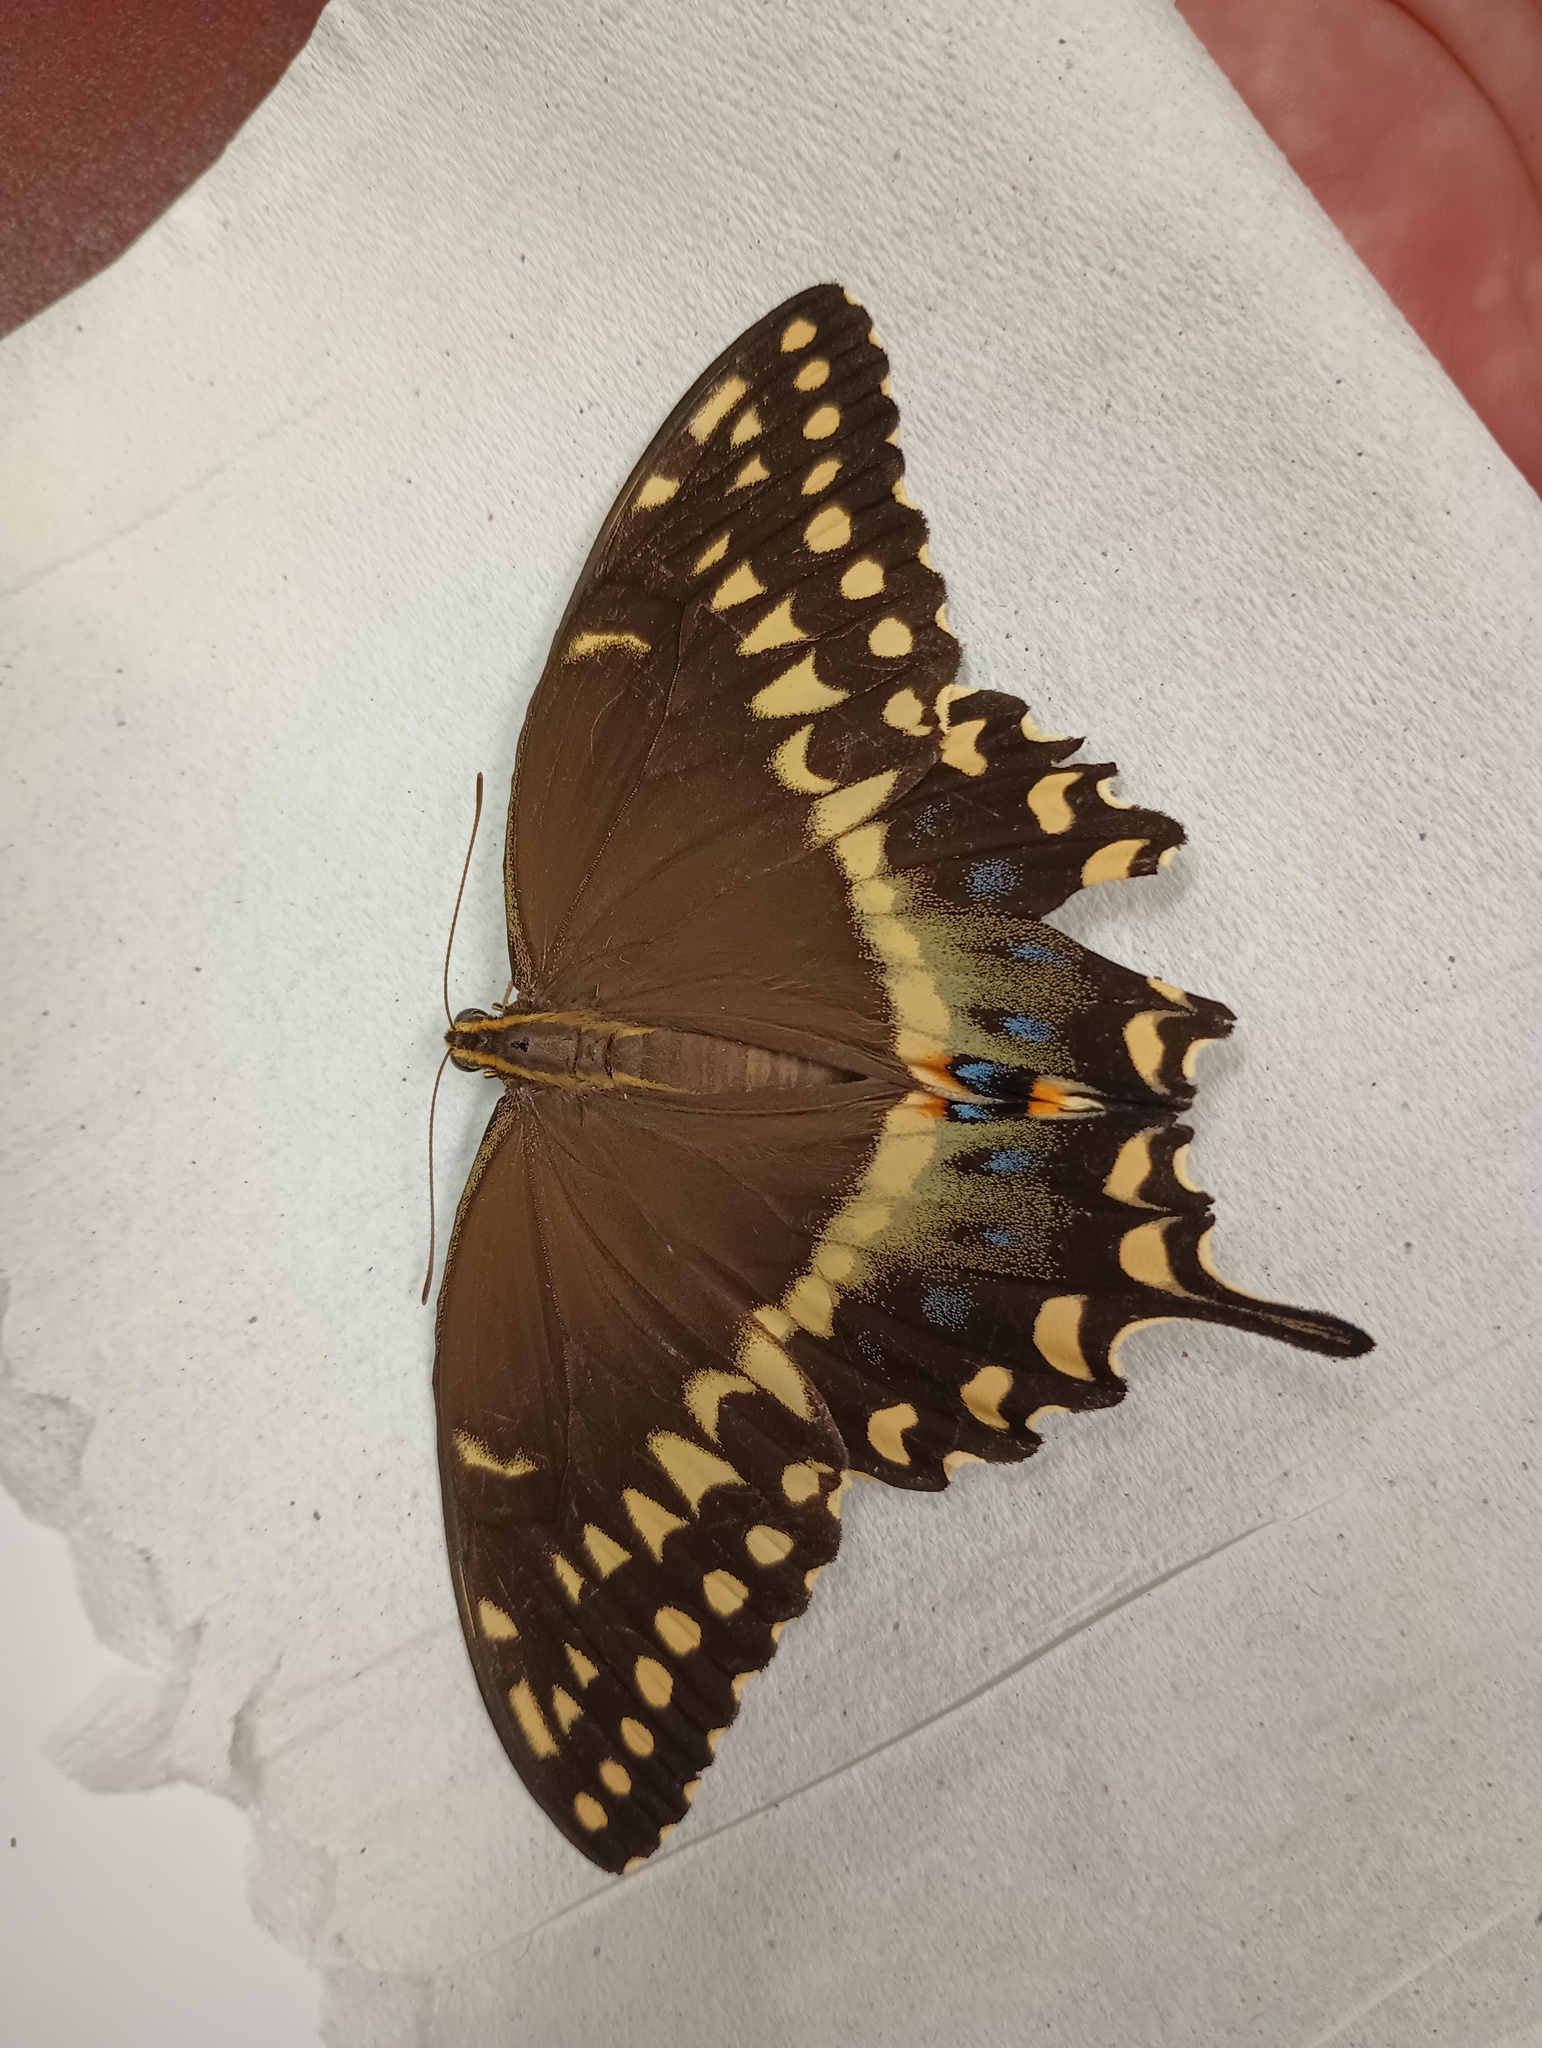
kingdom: Animalia
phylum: Arthropoda
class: Insecta
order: Lepidoptera
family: Papilionidae
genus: Papilio
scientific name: Papilio palamedes
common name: Palamedes swallowtail
